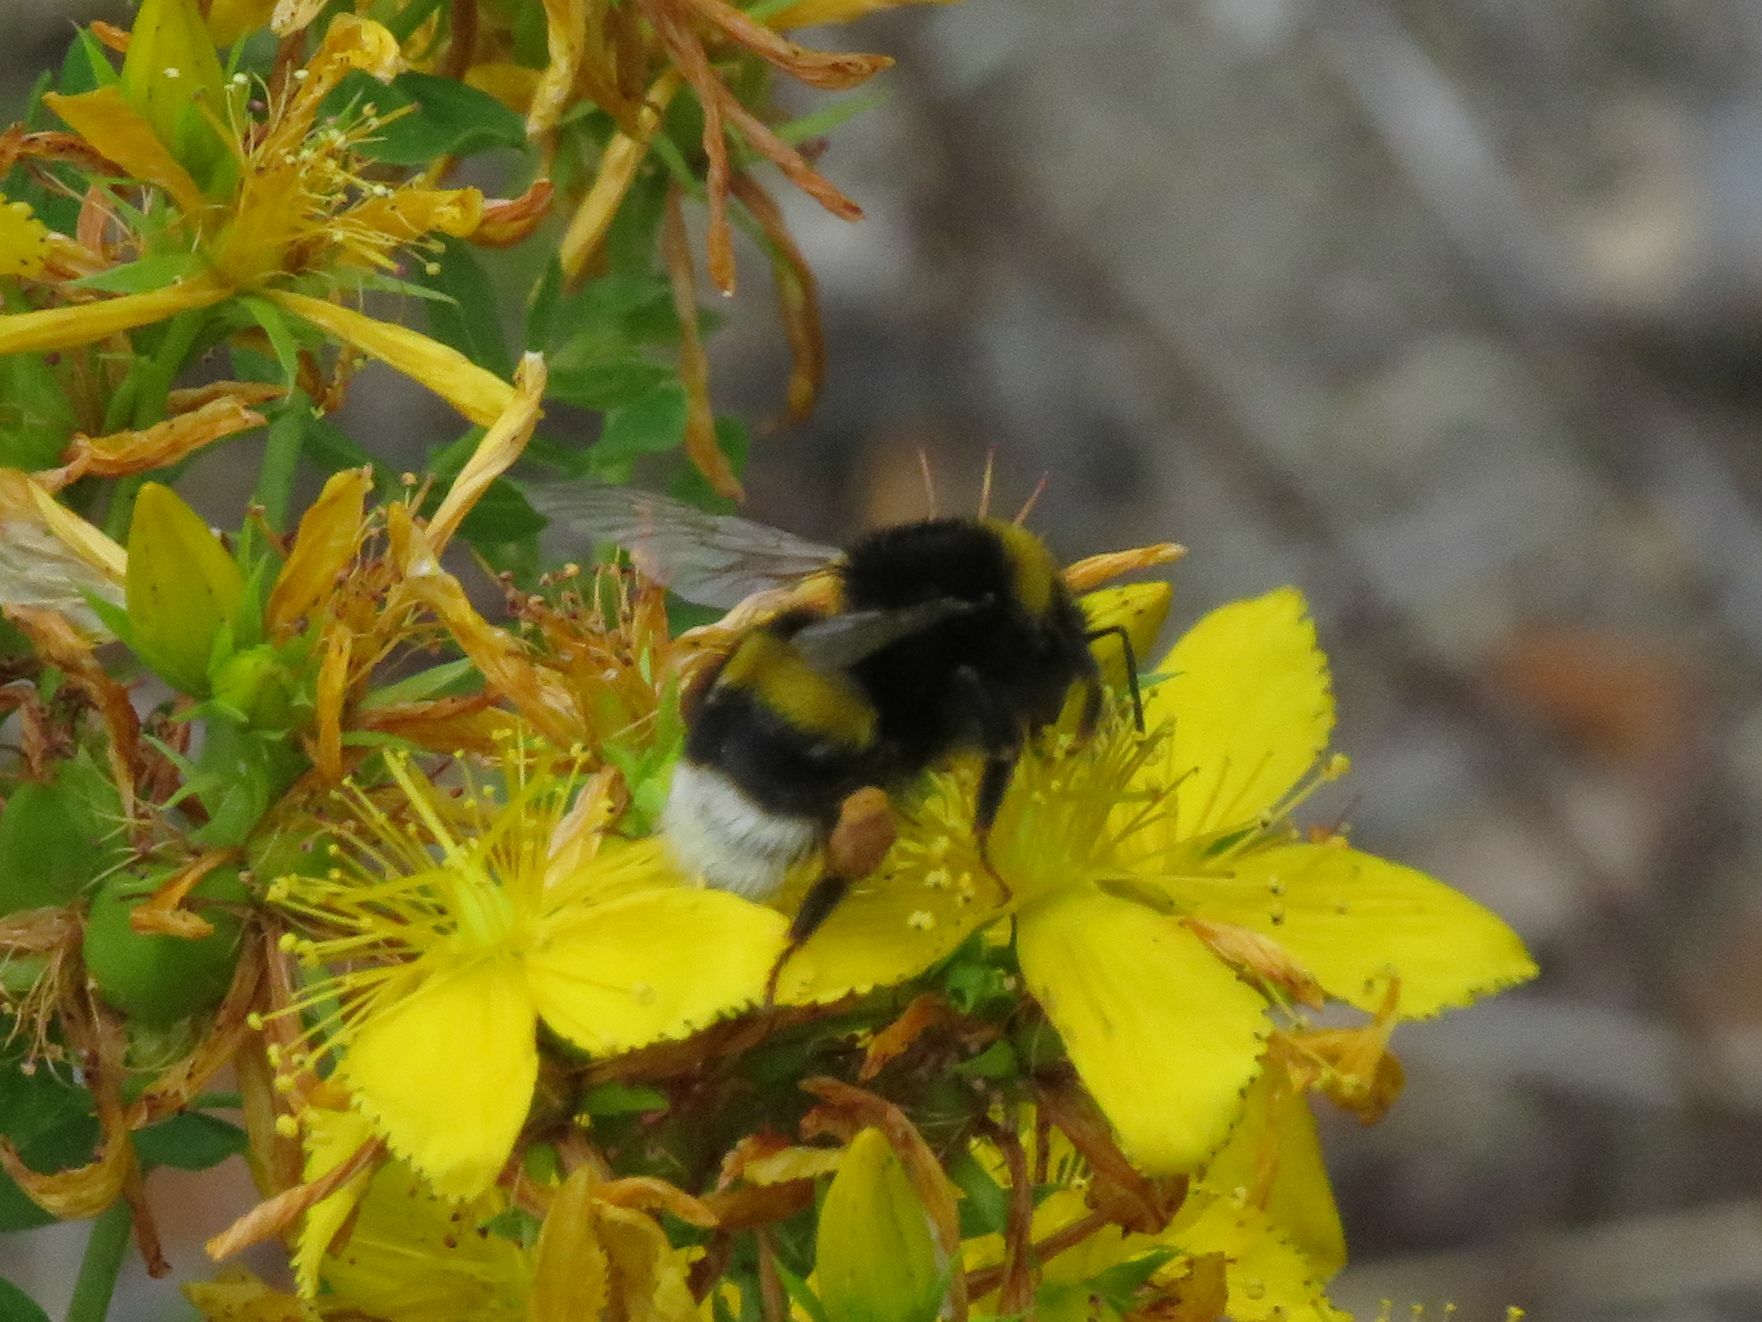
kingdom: Animalia
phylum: Arthropoda
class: Insecta
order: Hymenoptera
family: Apidae
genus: Bombus
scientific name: Bombus terrestris
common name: Buff-tailed bumblebee
